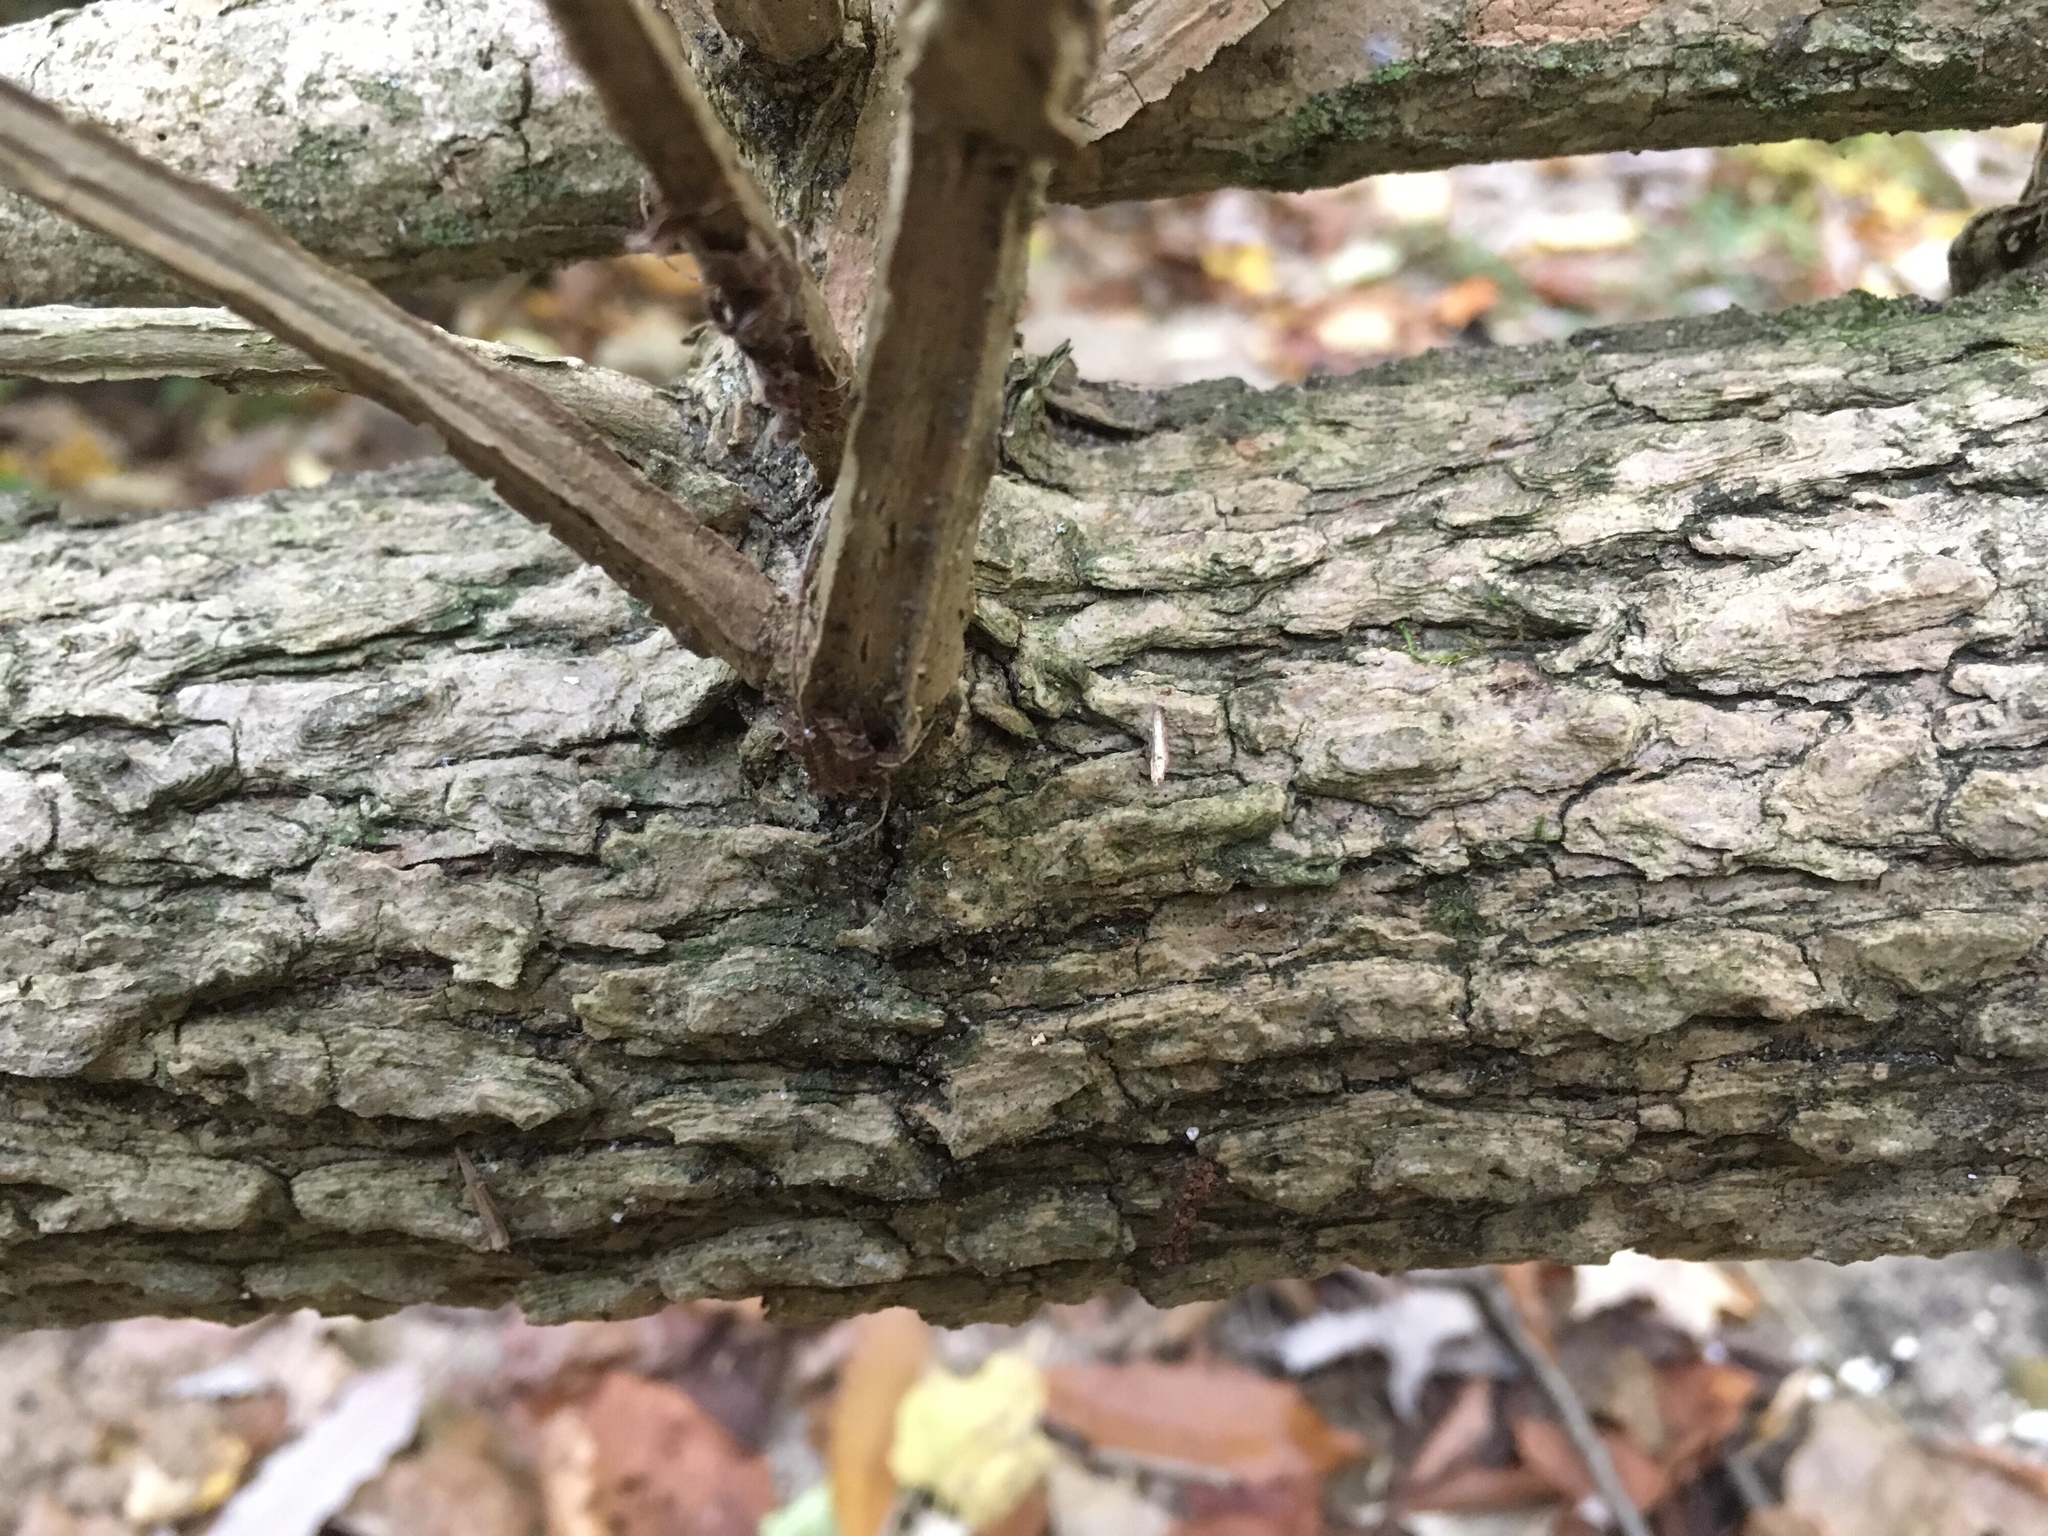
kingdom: Plantae
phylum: Tracheophyta
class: Magnoliopsida
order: Lamiales
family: Oleaceae
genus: Fraxinus
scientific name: Fraxinus quadrangulata
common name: Blue ash
